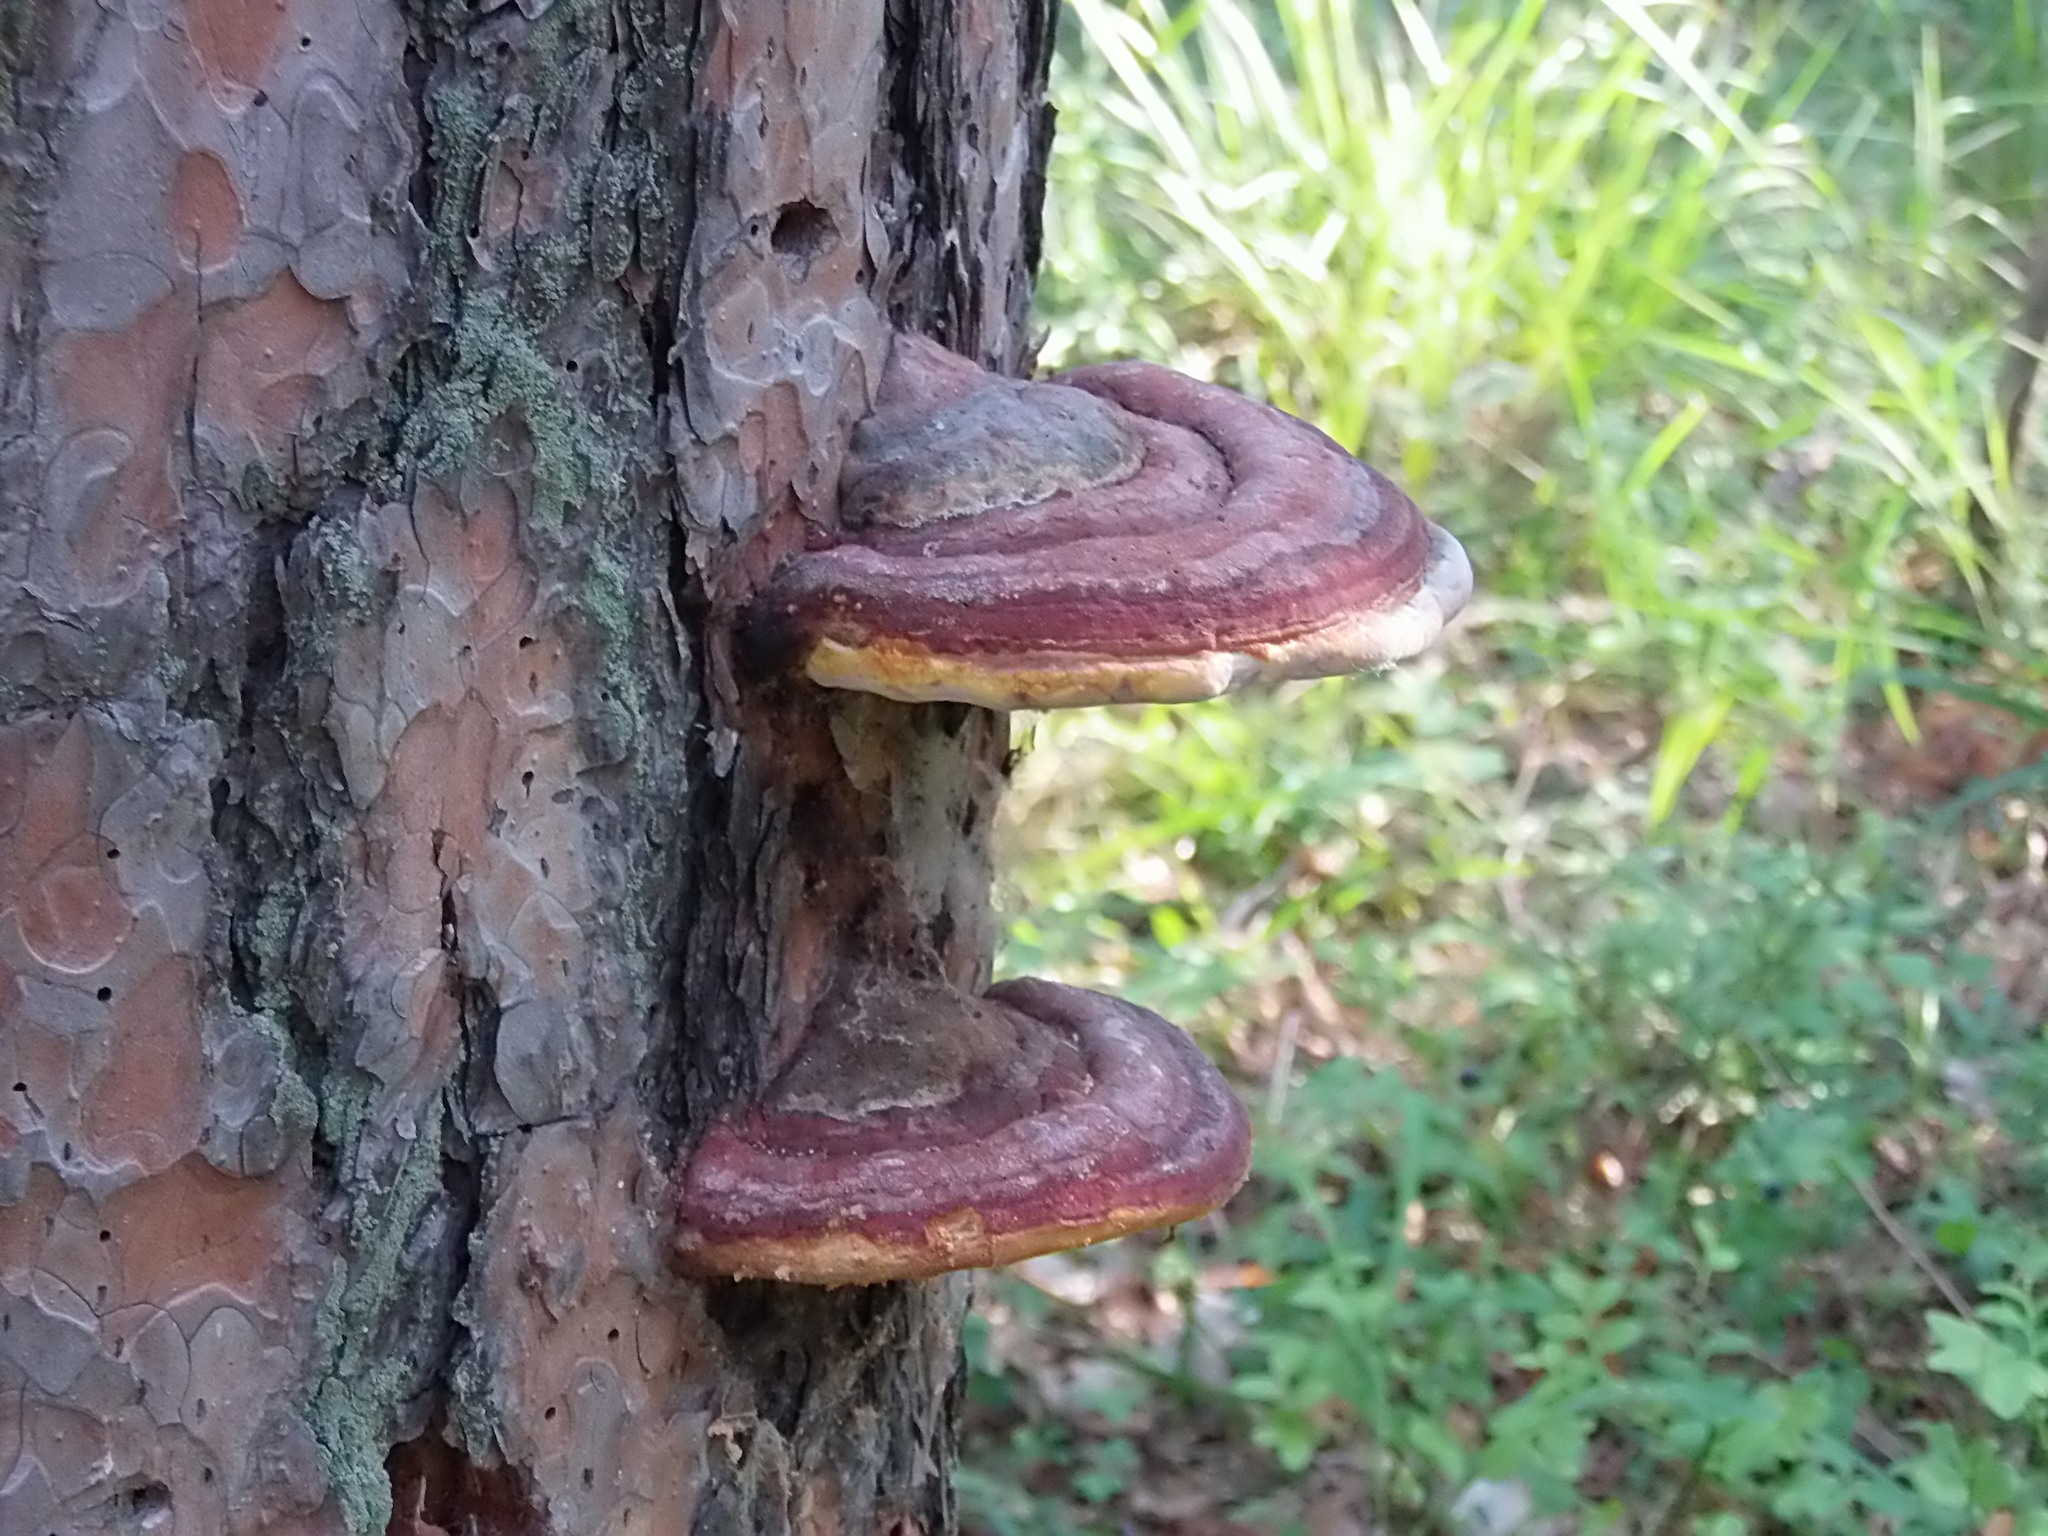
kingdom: Fungi
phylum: Basidiomycota
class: Agaricomycetes
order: Polyporales
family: Fomitopsidaceae
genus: Fomitopsis
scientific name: Fomitopsis pinicola
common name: Red-belted bracket
